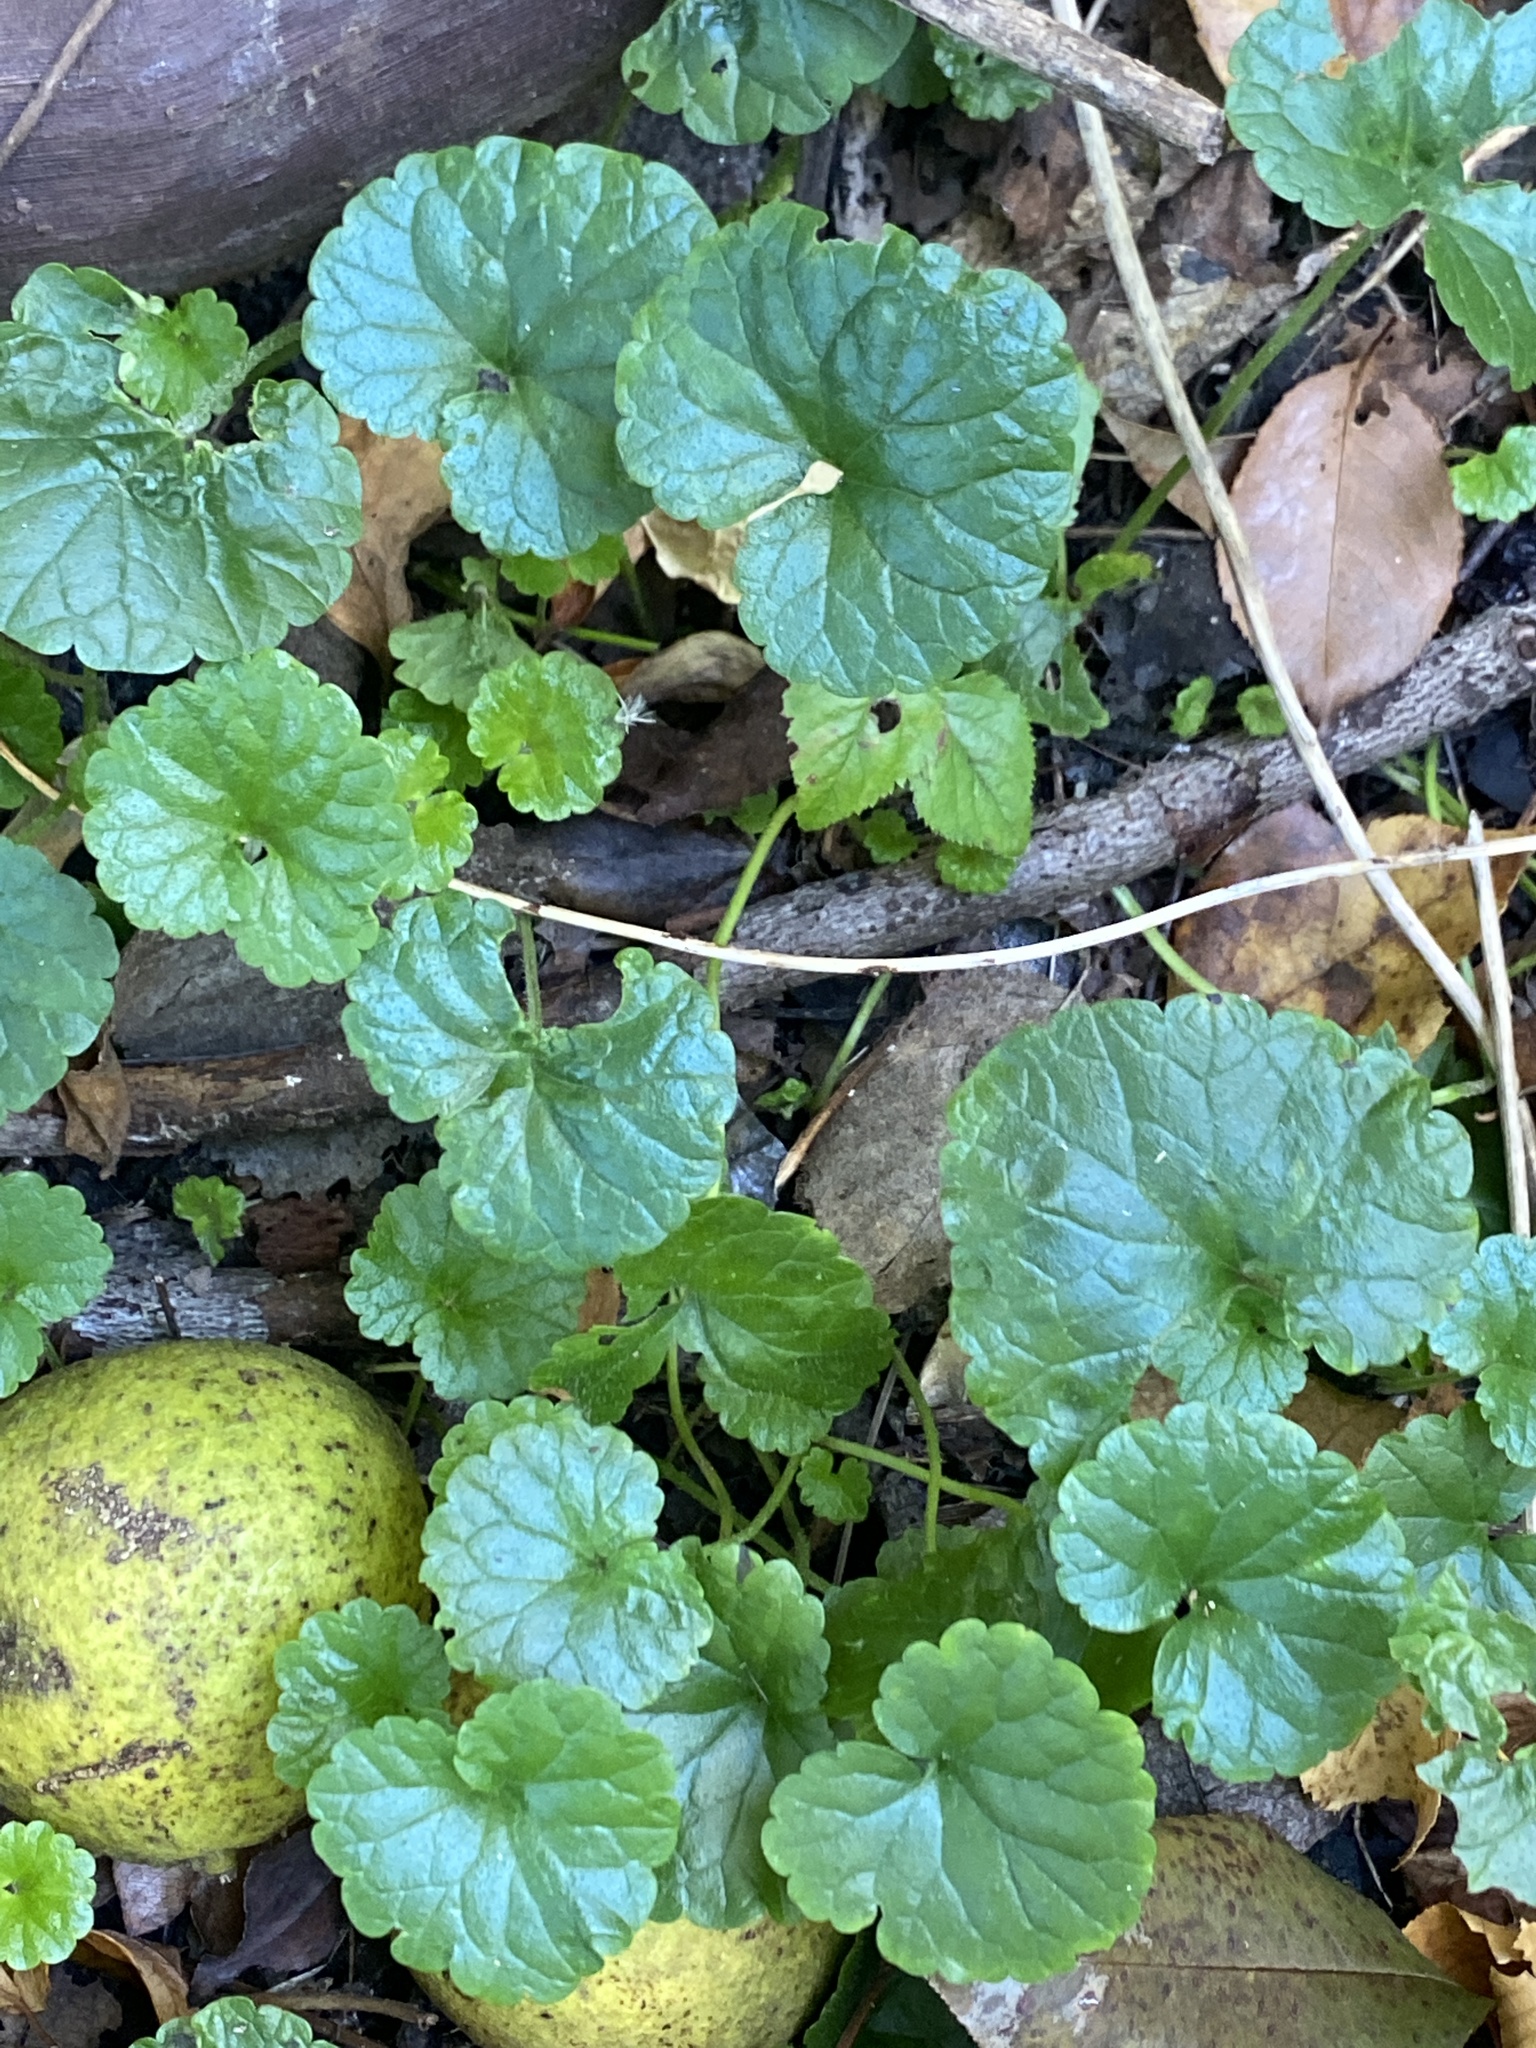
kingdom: Plantae
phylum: Tracheophyta
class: Magnoliopsida
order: Lamiales
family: Lamiaceae
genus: Glechoma
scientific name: Glechoma hederacea
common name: Ground ivy
